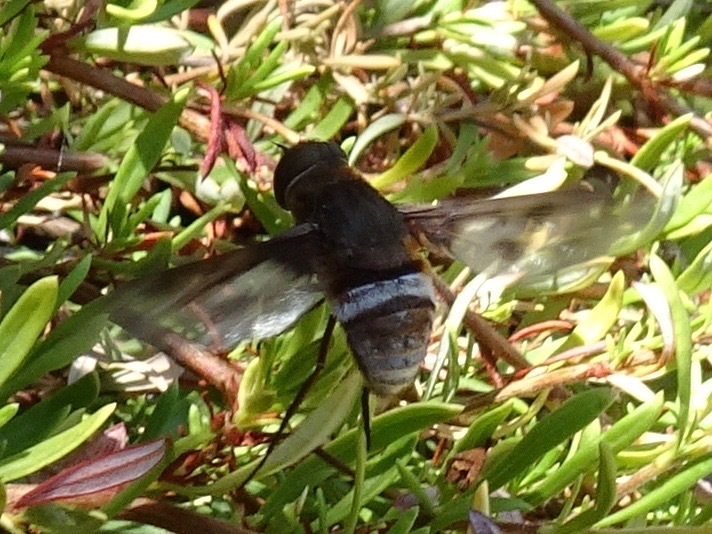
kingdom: Animalia
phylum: Arthropoda
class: Insecta
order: Diptera
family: Bombyliidae
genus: Nyia
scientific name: Nyia gazophylax
